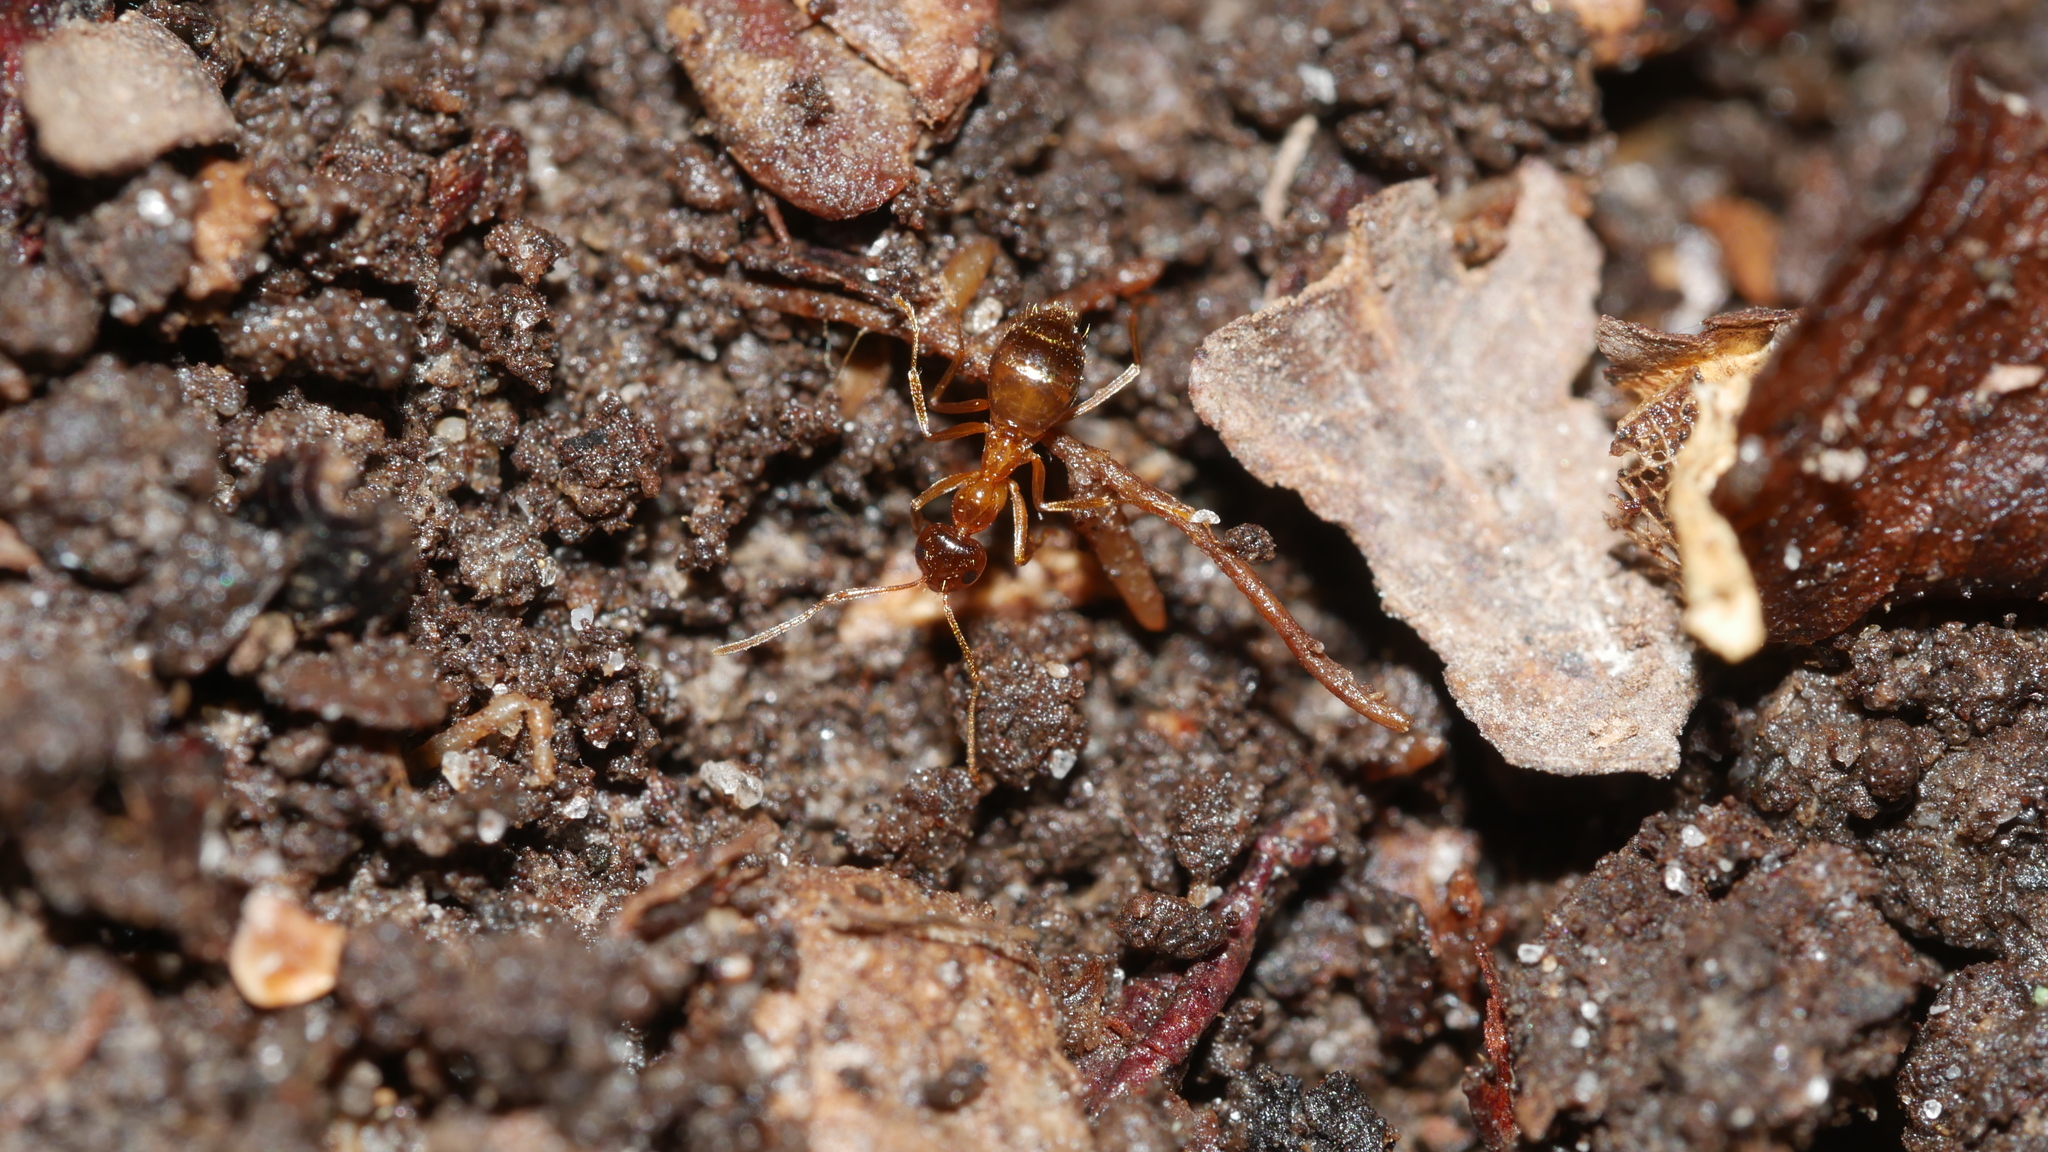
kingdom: Animalia
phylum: Arthropoda
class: Insecta
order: Hymenoptera
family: Formicidae
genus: Prenolepis
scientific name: Prenolepis imparis
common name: Small honey ant
